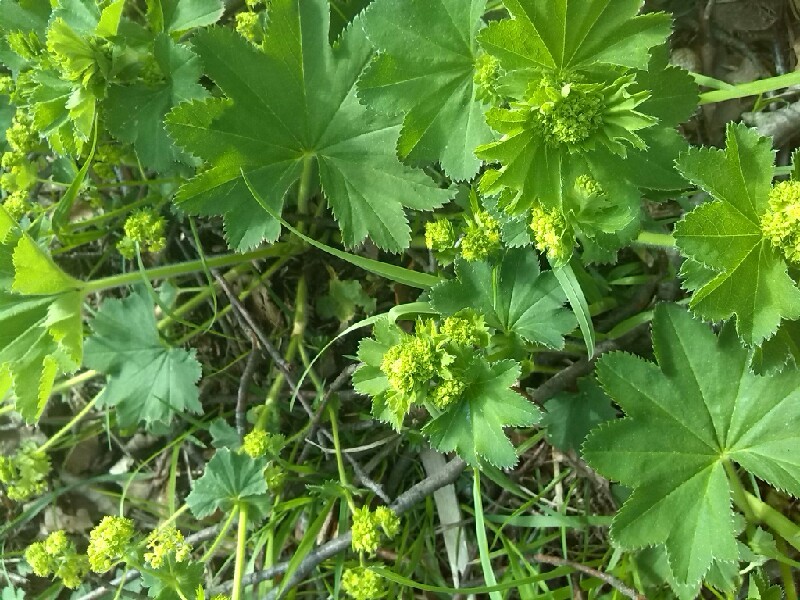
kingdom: Plantae
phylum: Tracheophyta
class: Magnoliopsida
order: Rosales
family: Rosaceae
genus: Alchemilla
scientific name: Alchemilla monticola
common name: Hairy lady's mantle
